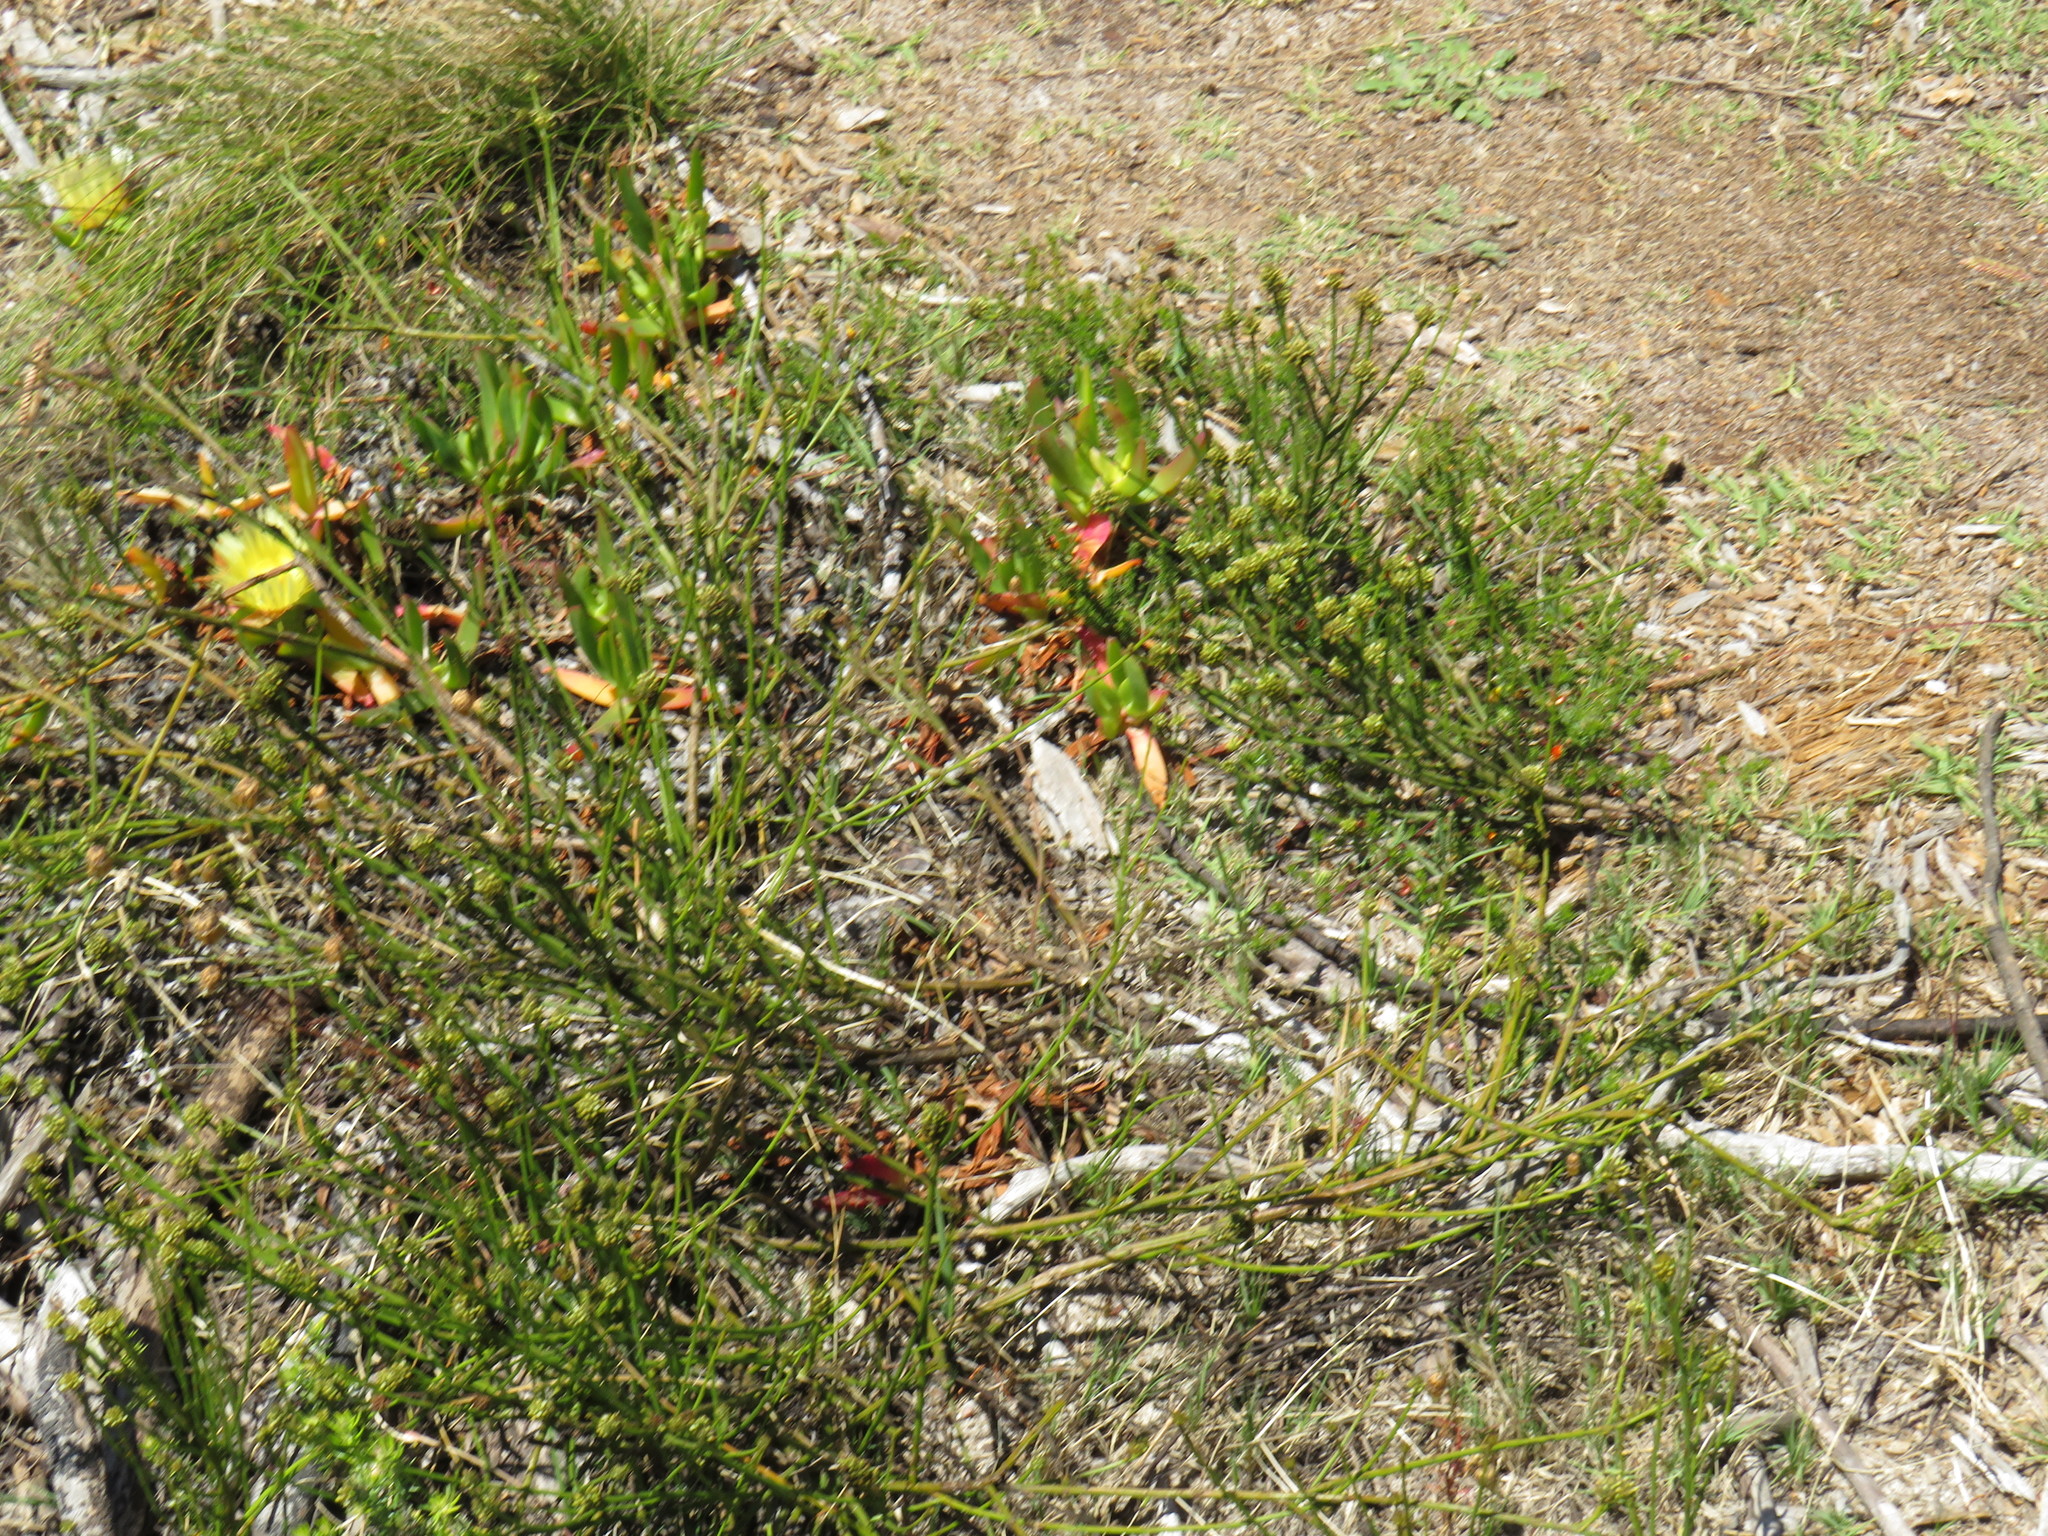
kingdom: Plantae
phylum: Tracheophyta
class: Magnoliopsida
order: Santalales
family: Thesiaceae
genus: Thesium
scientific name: Thesium aggregatum
